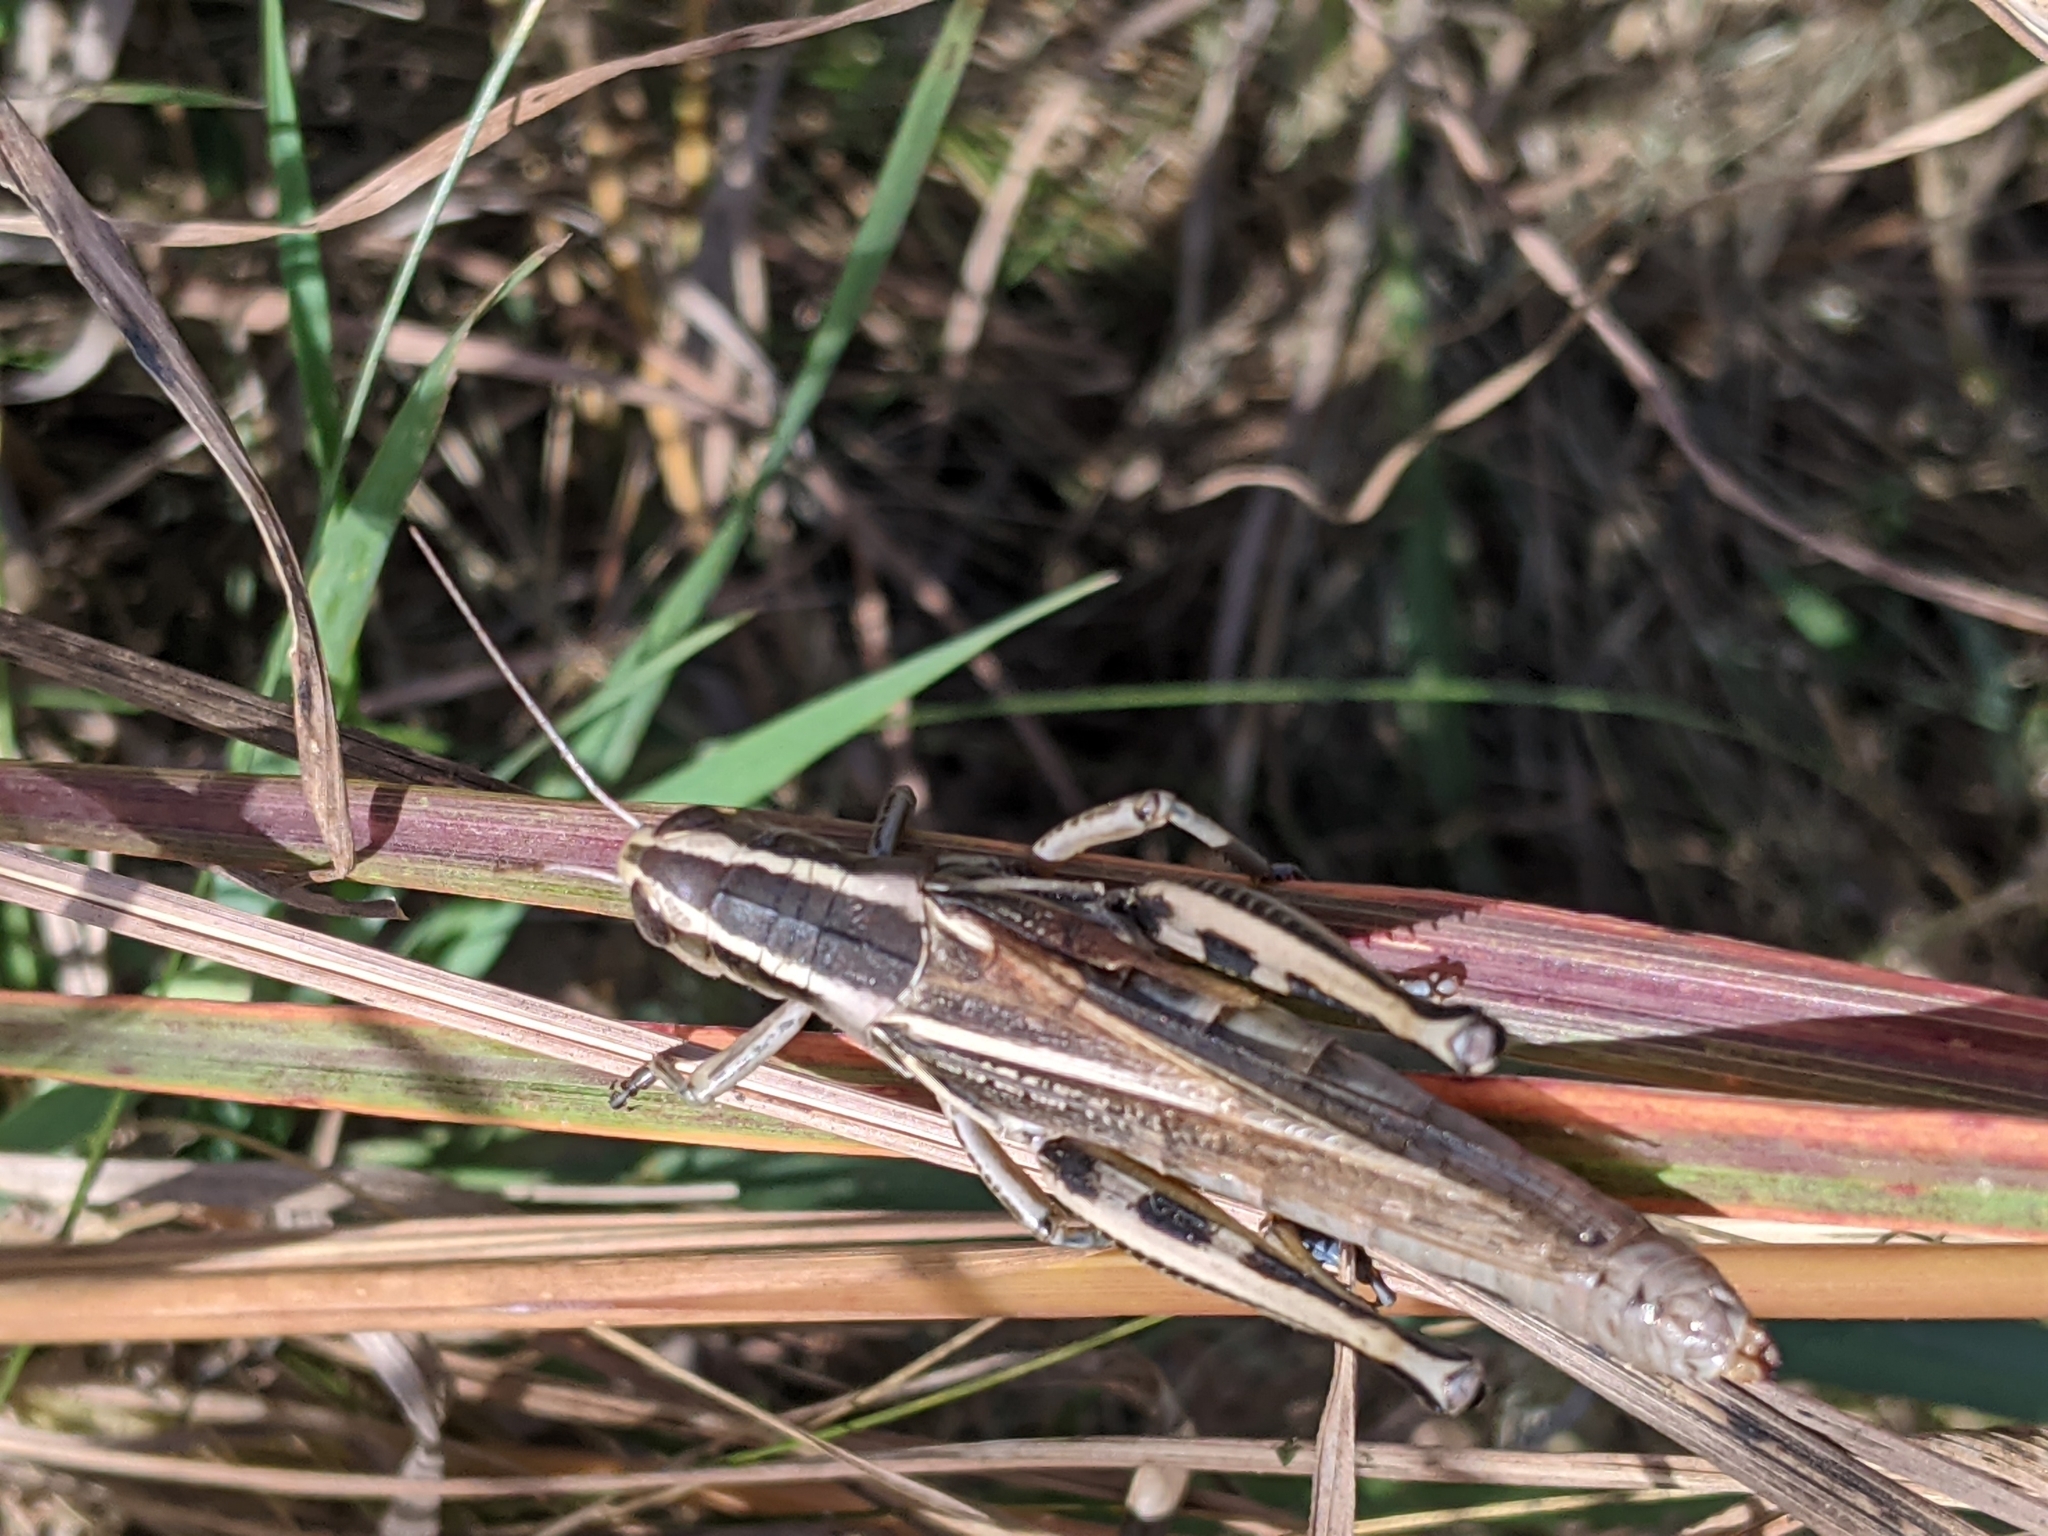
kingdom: Animalia
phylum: Arthropoda
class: Insecta
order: Orthoptera
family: Acrididae
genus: Melanoplus
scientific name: Melanoplus bivittatus
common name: Two-striped grasshopper
